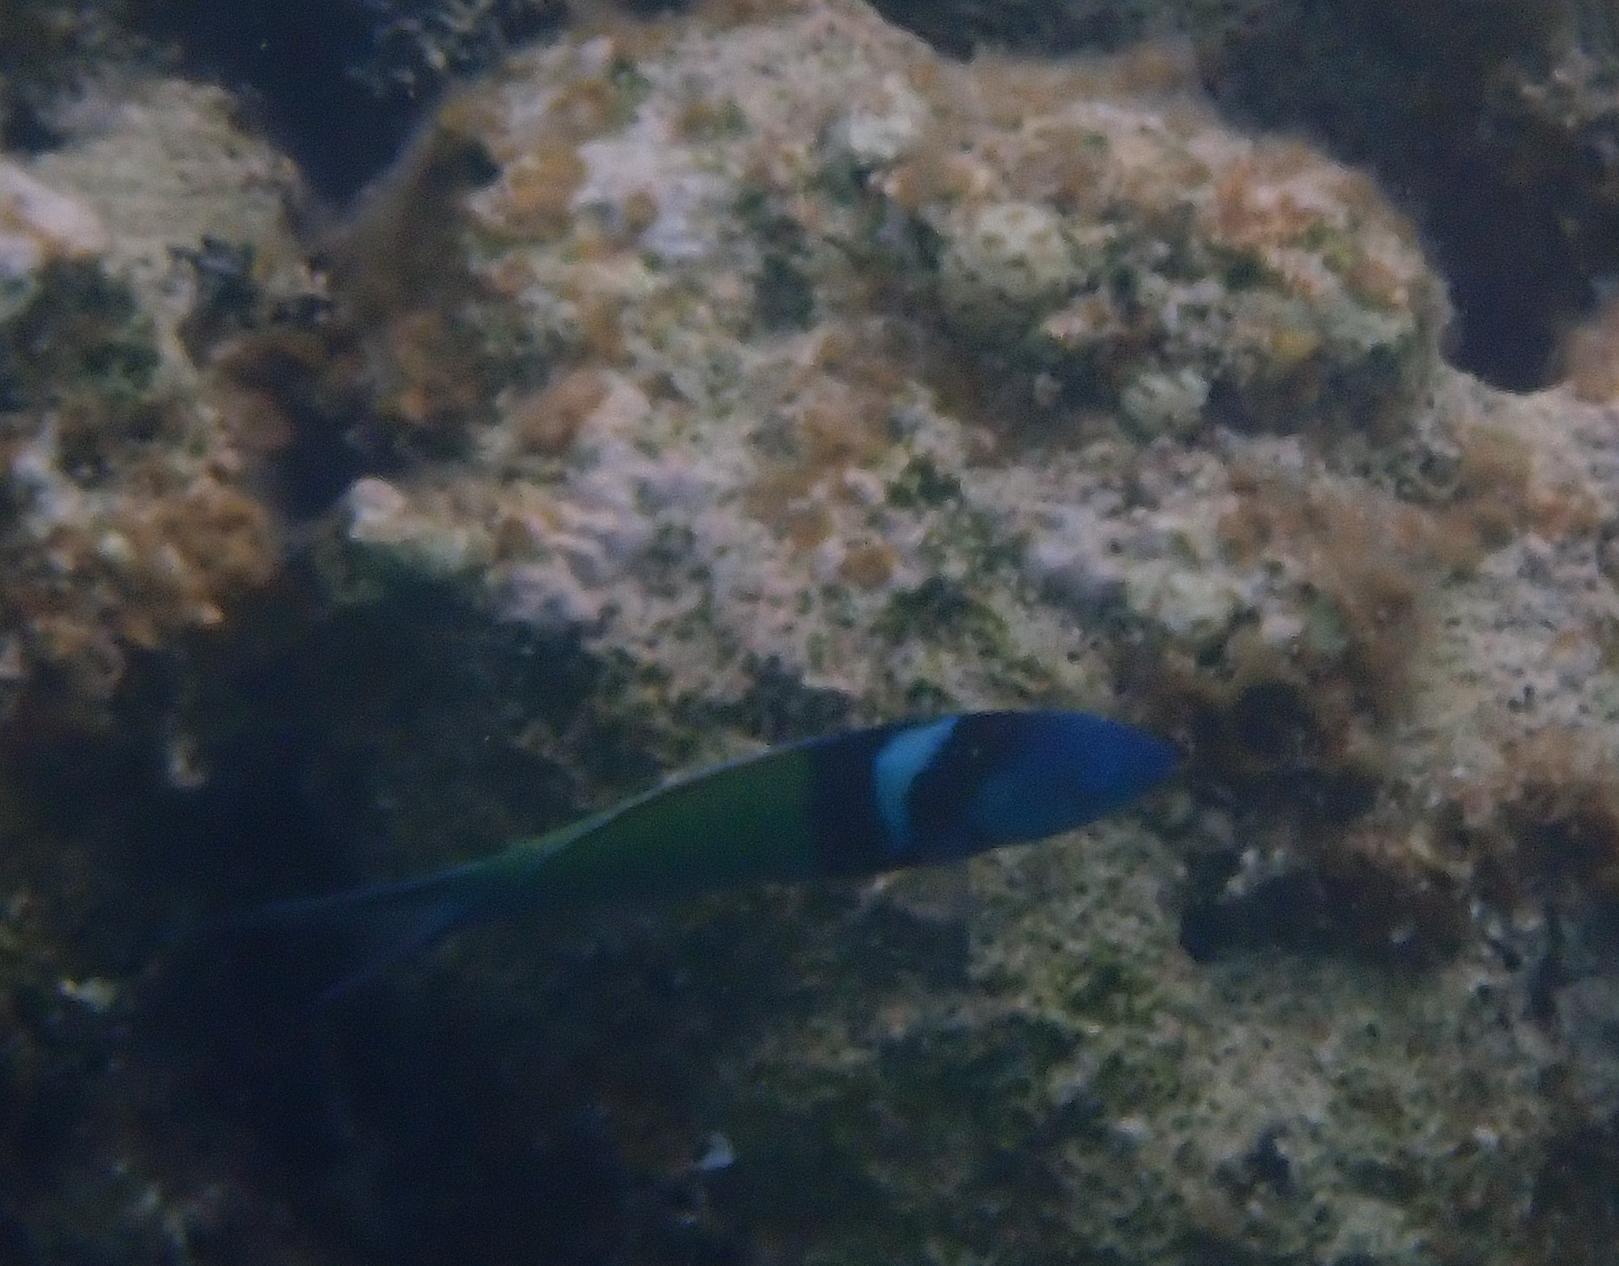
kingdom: Animalia
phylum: Chordata
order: Perciformes
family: Labridae
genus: Thalassoma
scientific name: Thalassoma bifasciatum
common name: Bluehead wrasse
